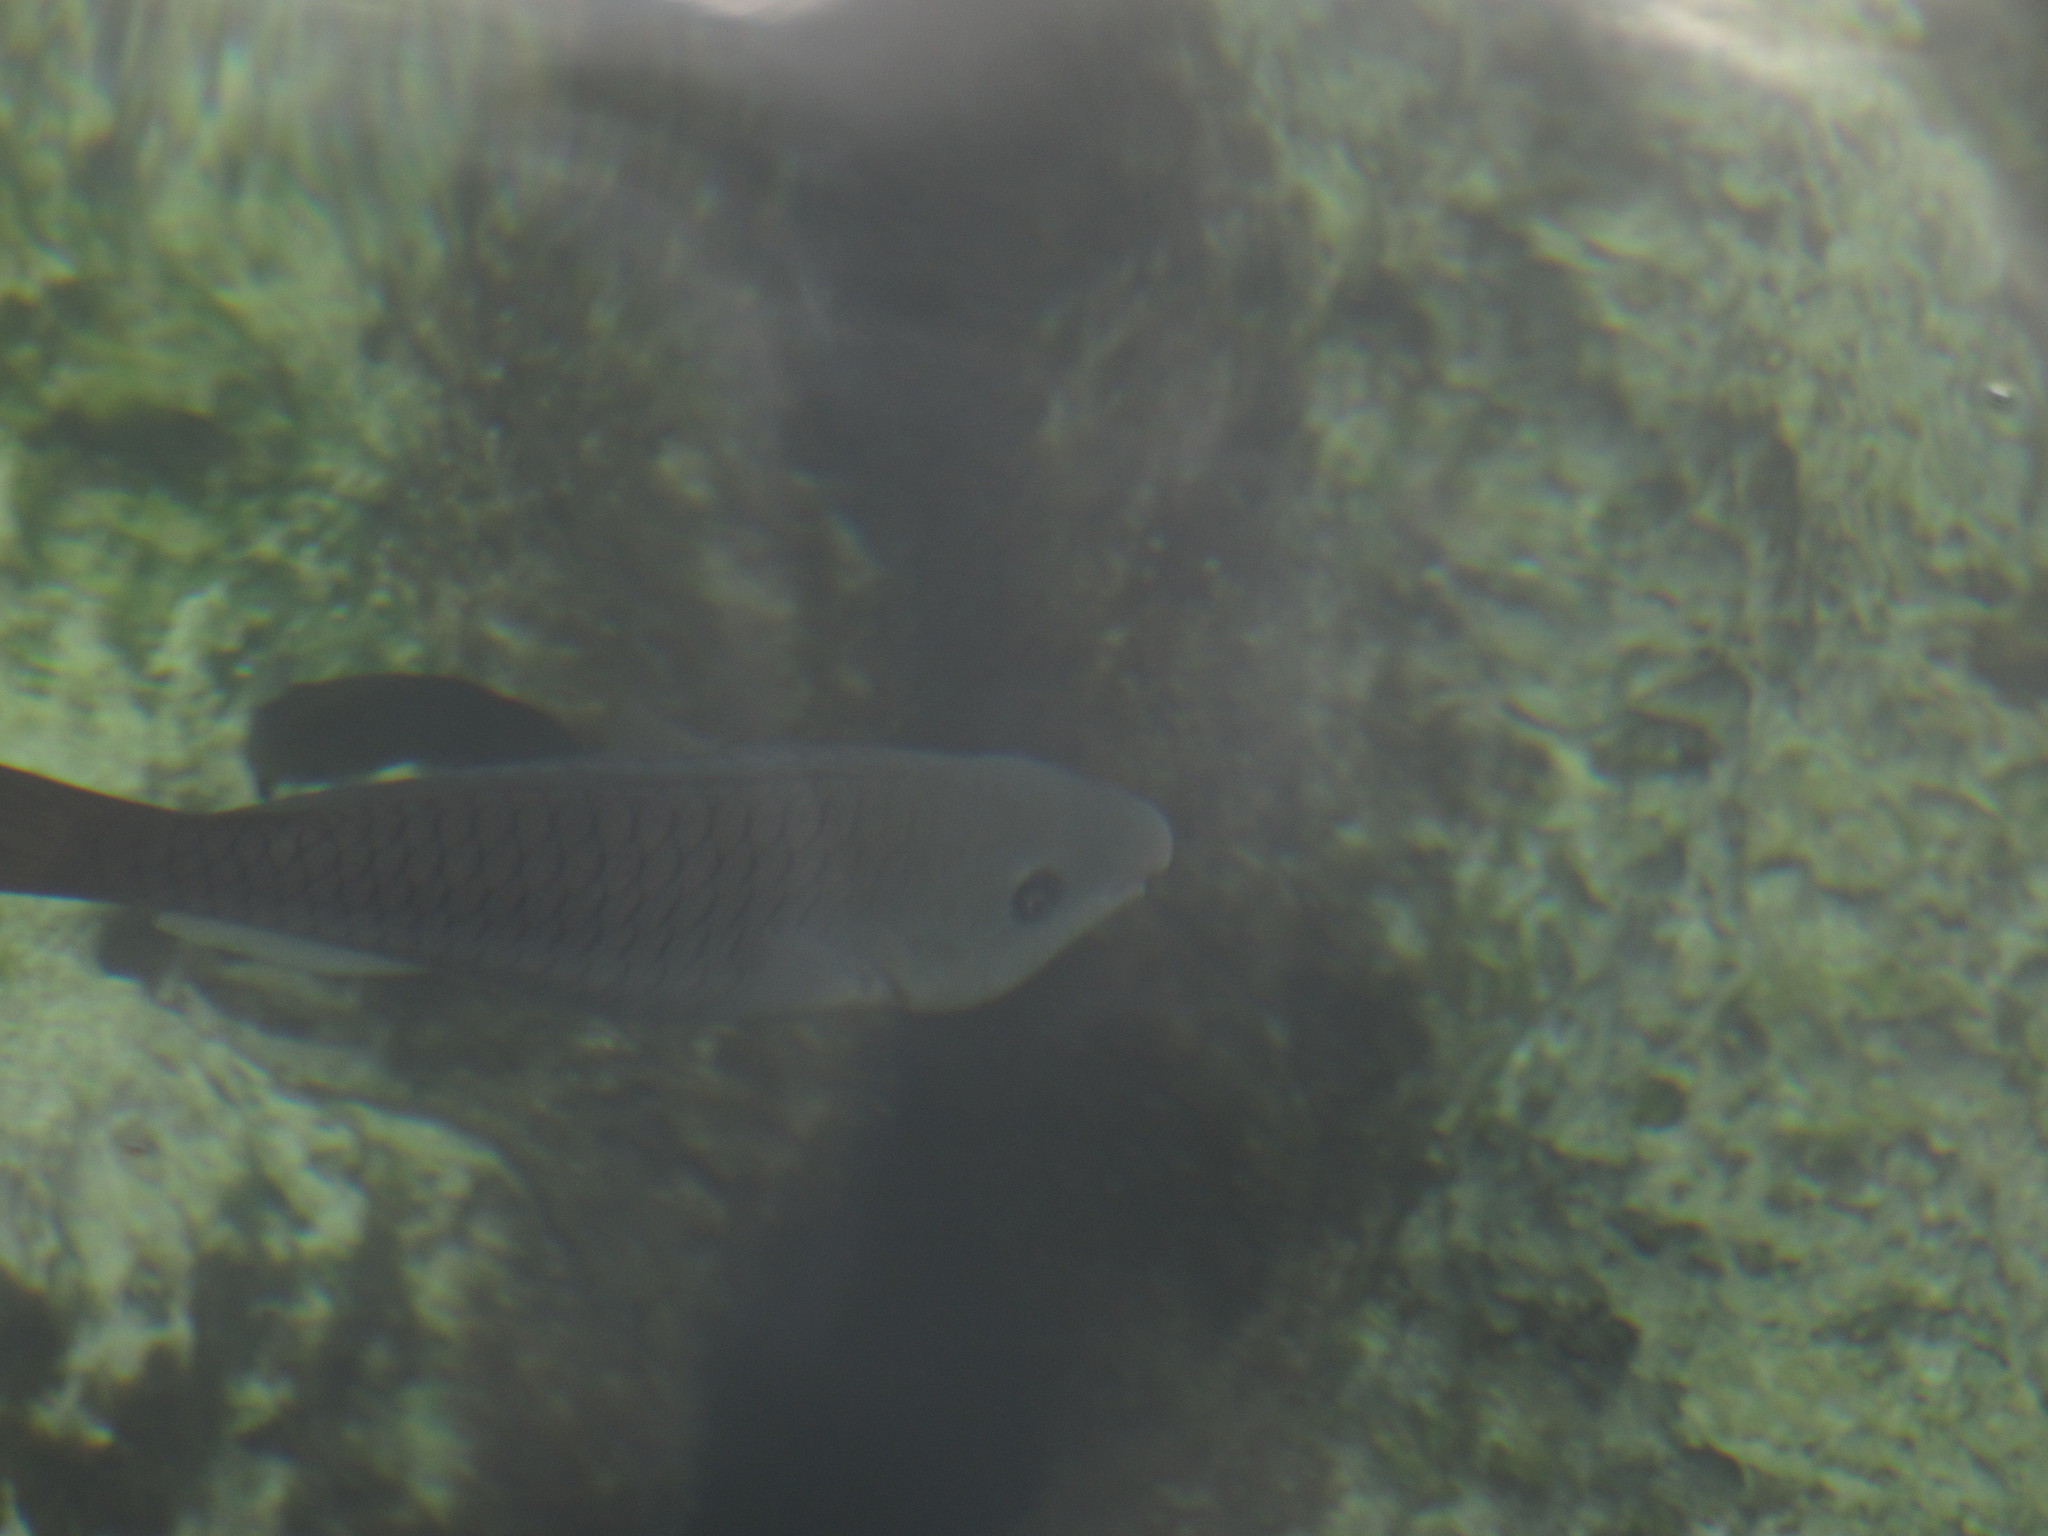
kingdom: Animalia
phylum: Chordata
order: Perciformes
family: Scaridae
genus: Scarus
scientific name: Scarus vetula
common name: Queen parrotfish
